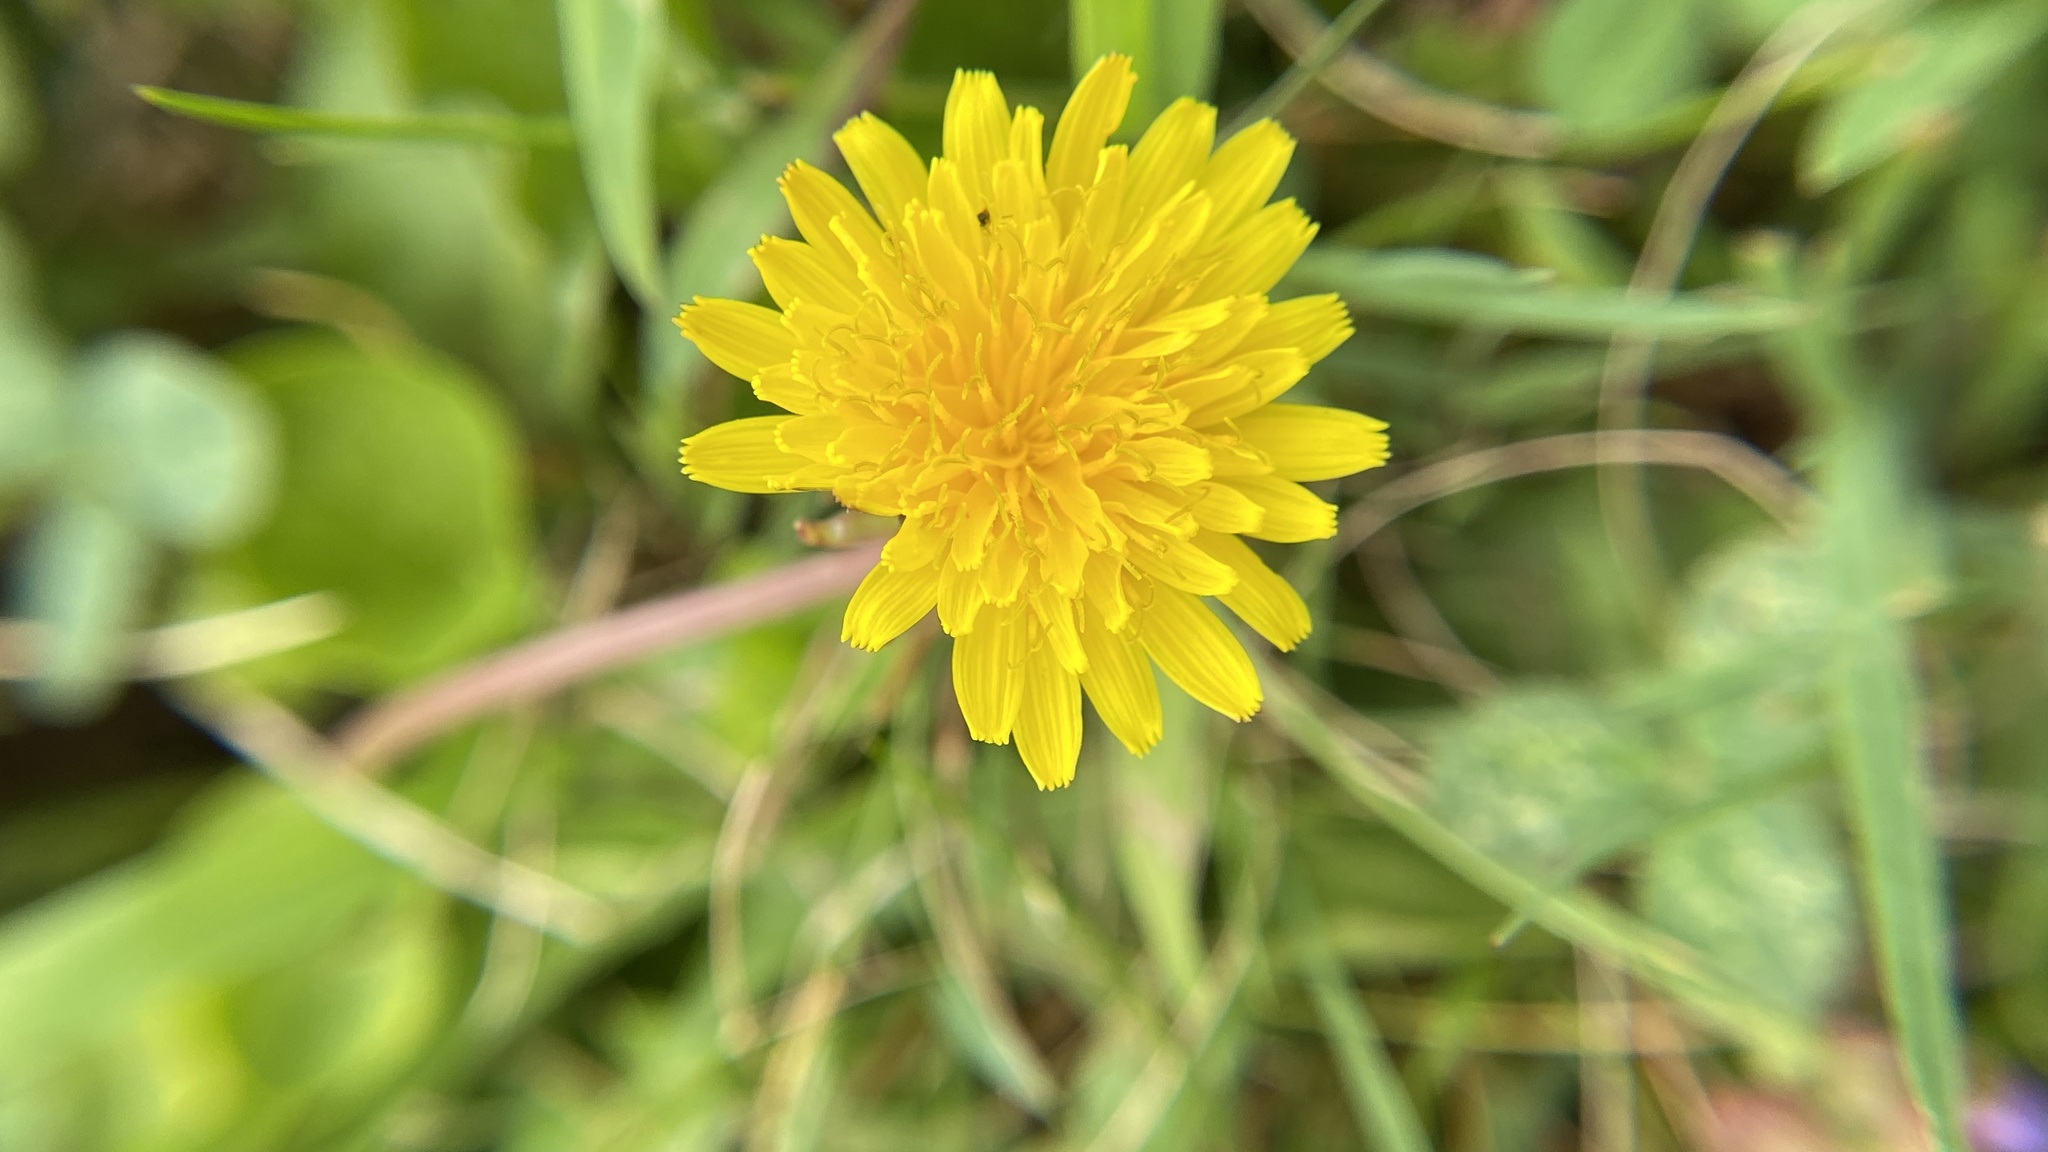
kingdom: Plantae
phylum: Tracheophyta
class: Magnoliopsida
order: Asterales
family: Asteraceae
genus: Taraxacum
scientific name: Taraxacum officinale
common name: Common dandelion
